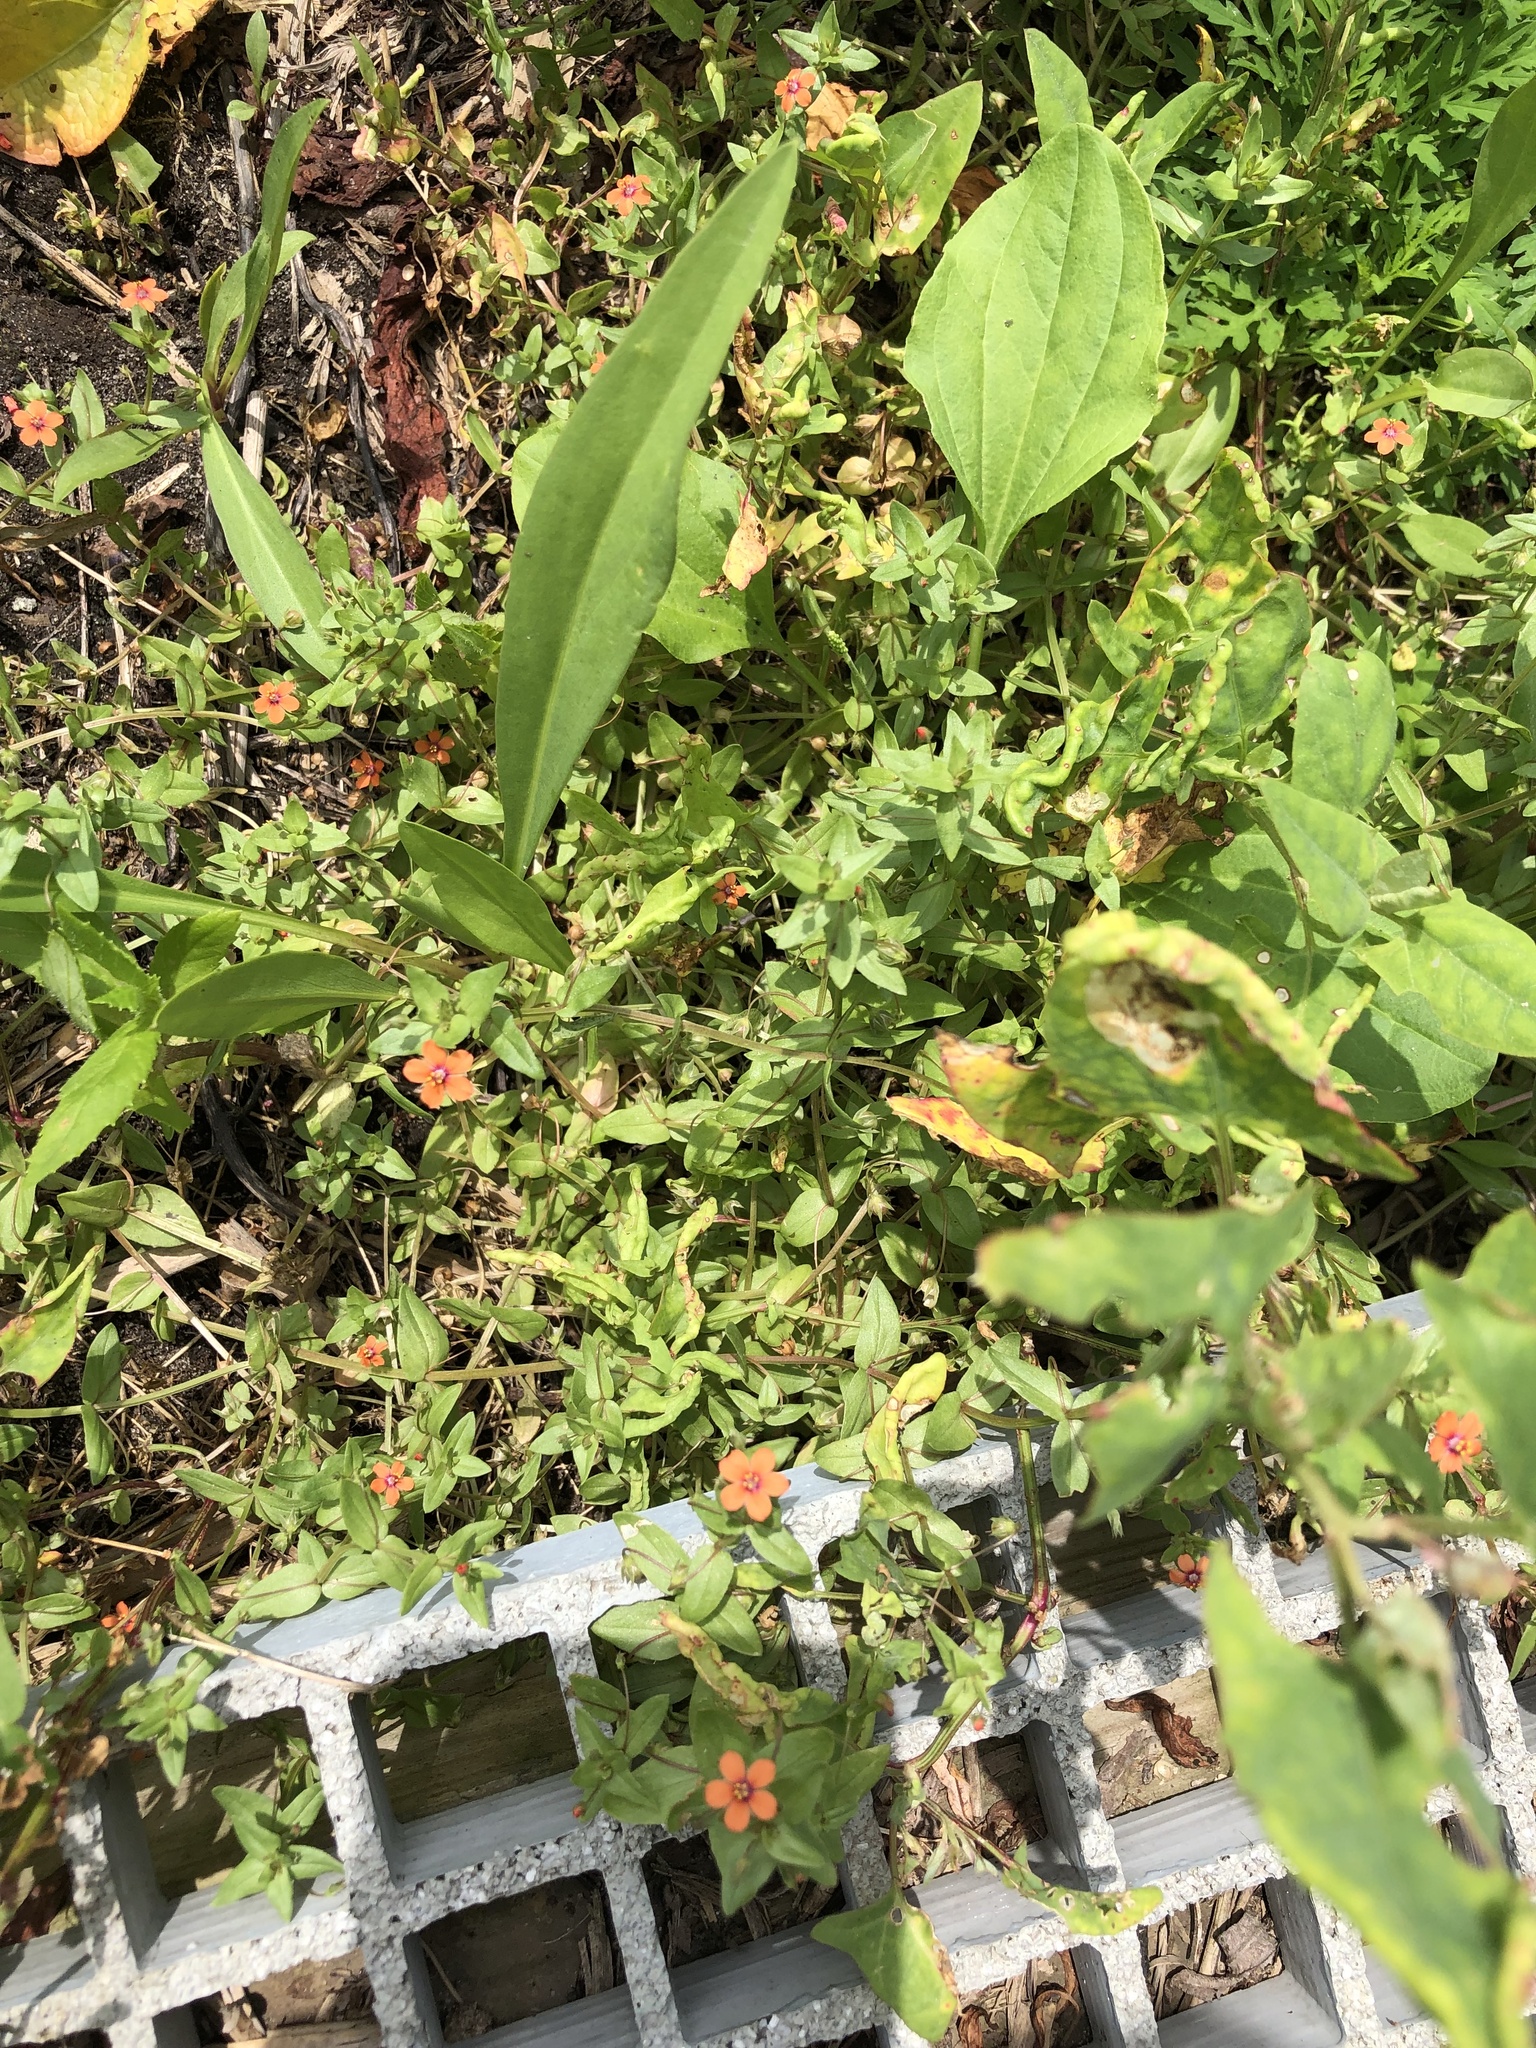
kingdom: Plantae
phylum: Tracheophyta
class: Magnoliopsida
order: Ericales
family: Primulaceae
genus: Lysimachia
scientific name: Lysimachia arvensis
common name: Scarlet pimpernel
